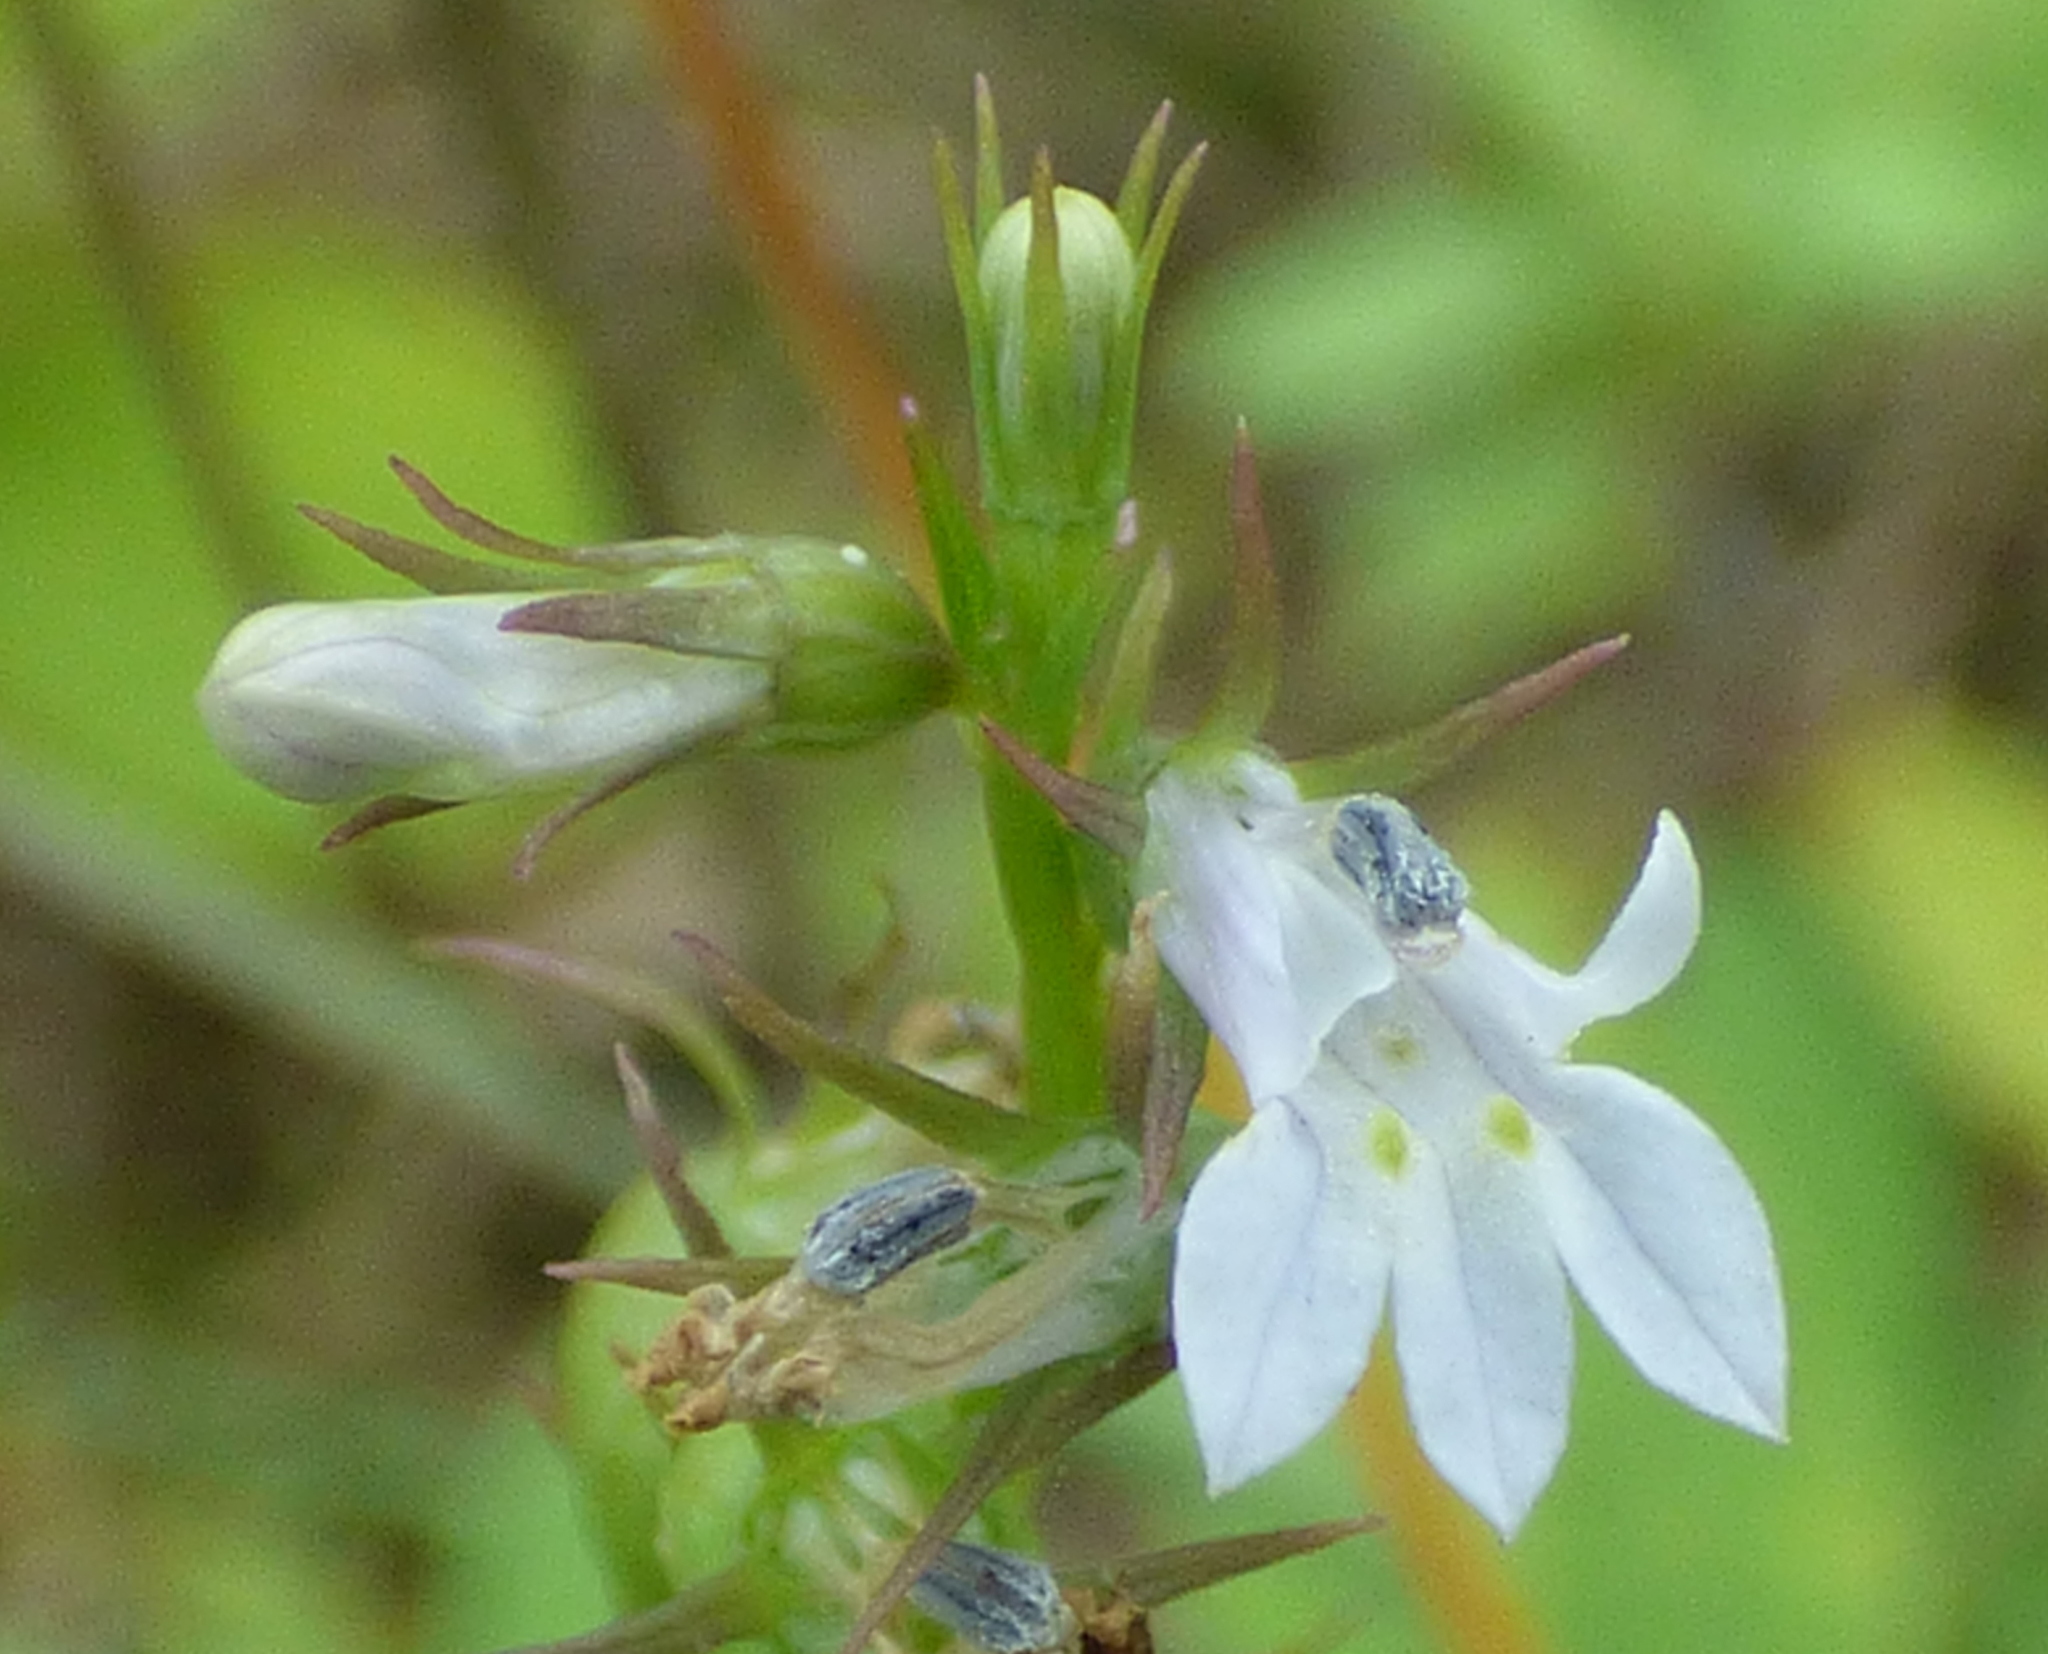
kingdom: Plantae
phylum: Tracheophyta
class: Magnoliopsida
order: Asterales
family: Campanulaceae
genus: Lobelia
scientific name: Lobelia inflata
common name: Indian tobacco
